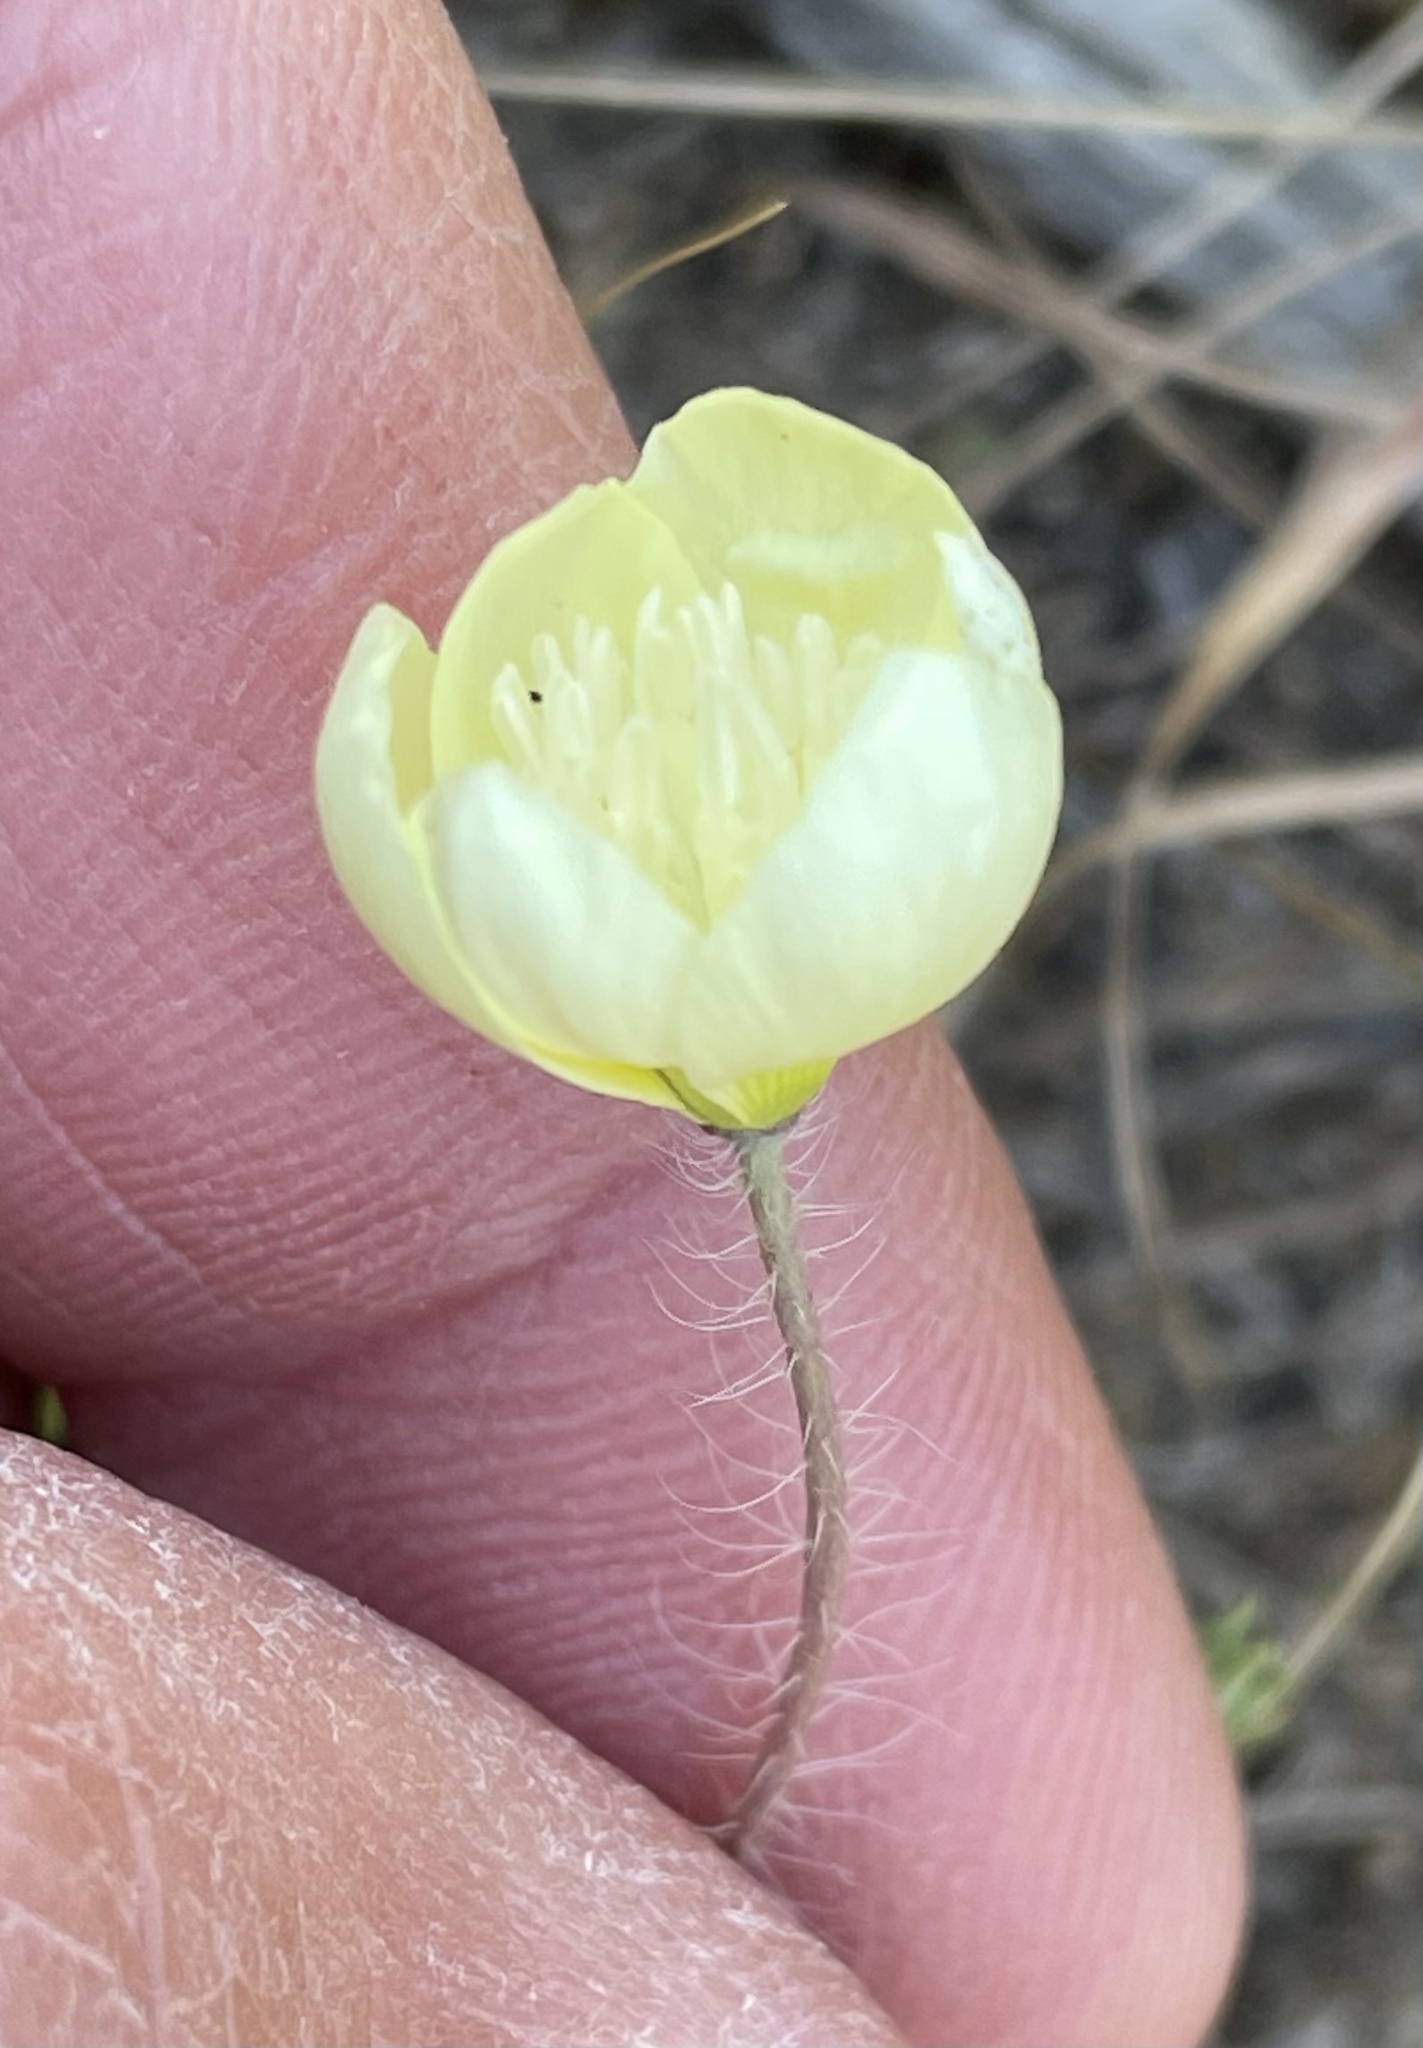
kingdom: Plantae
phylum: Tracheophyta
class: Magnoliopsida
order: Ranunculales
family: Papaveraceae
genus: Platystemon
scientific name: Platystemon californicus
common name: Cream-cups
